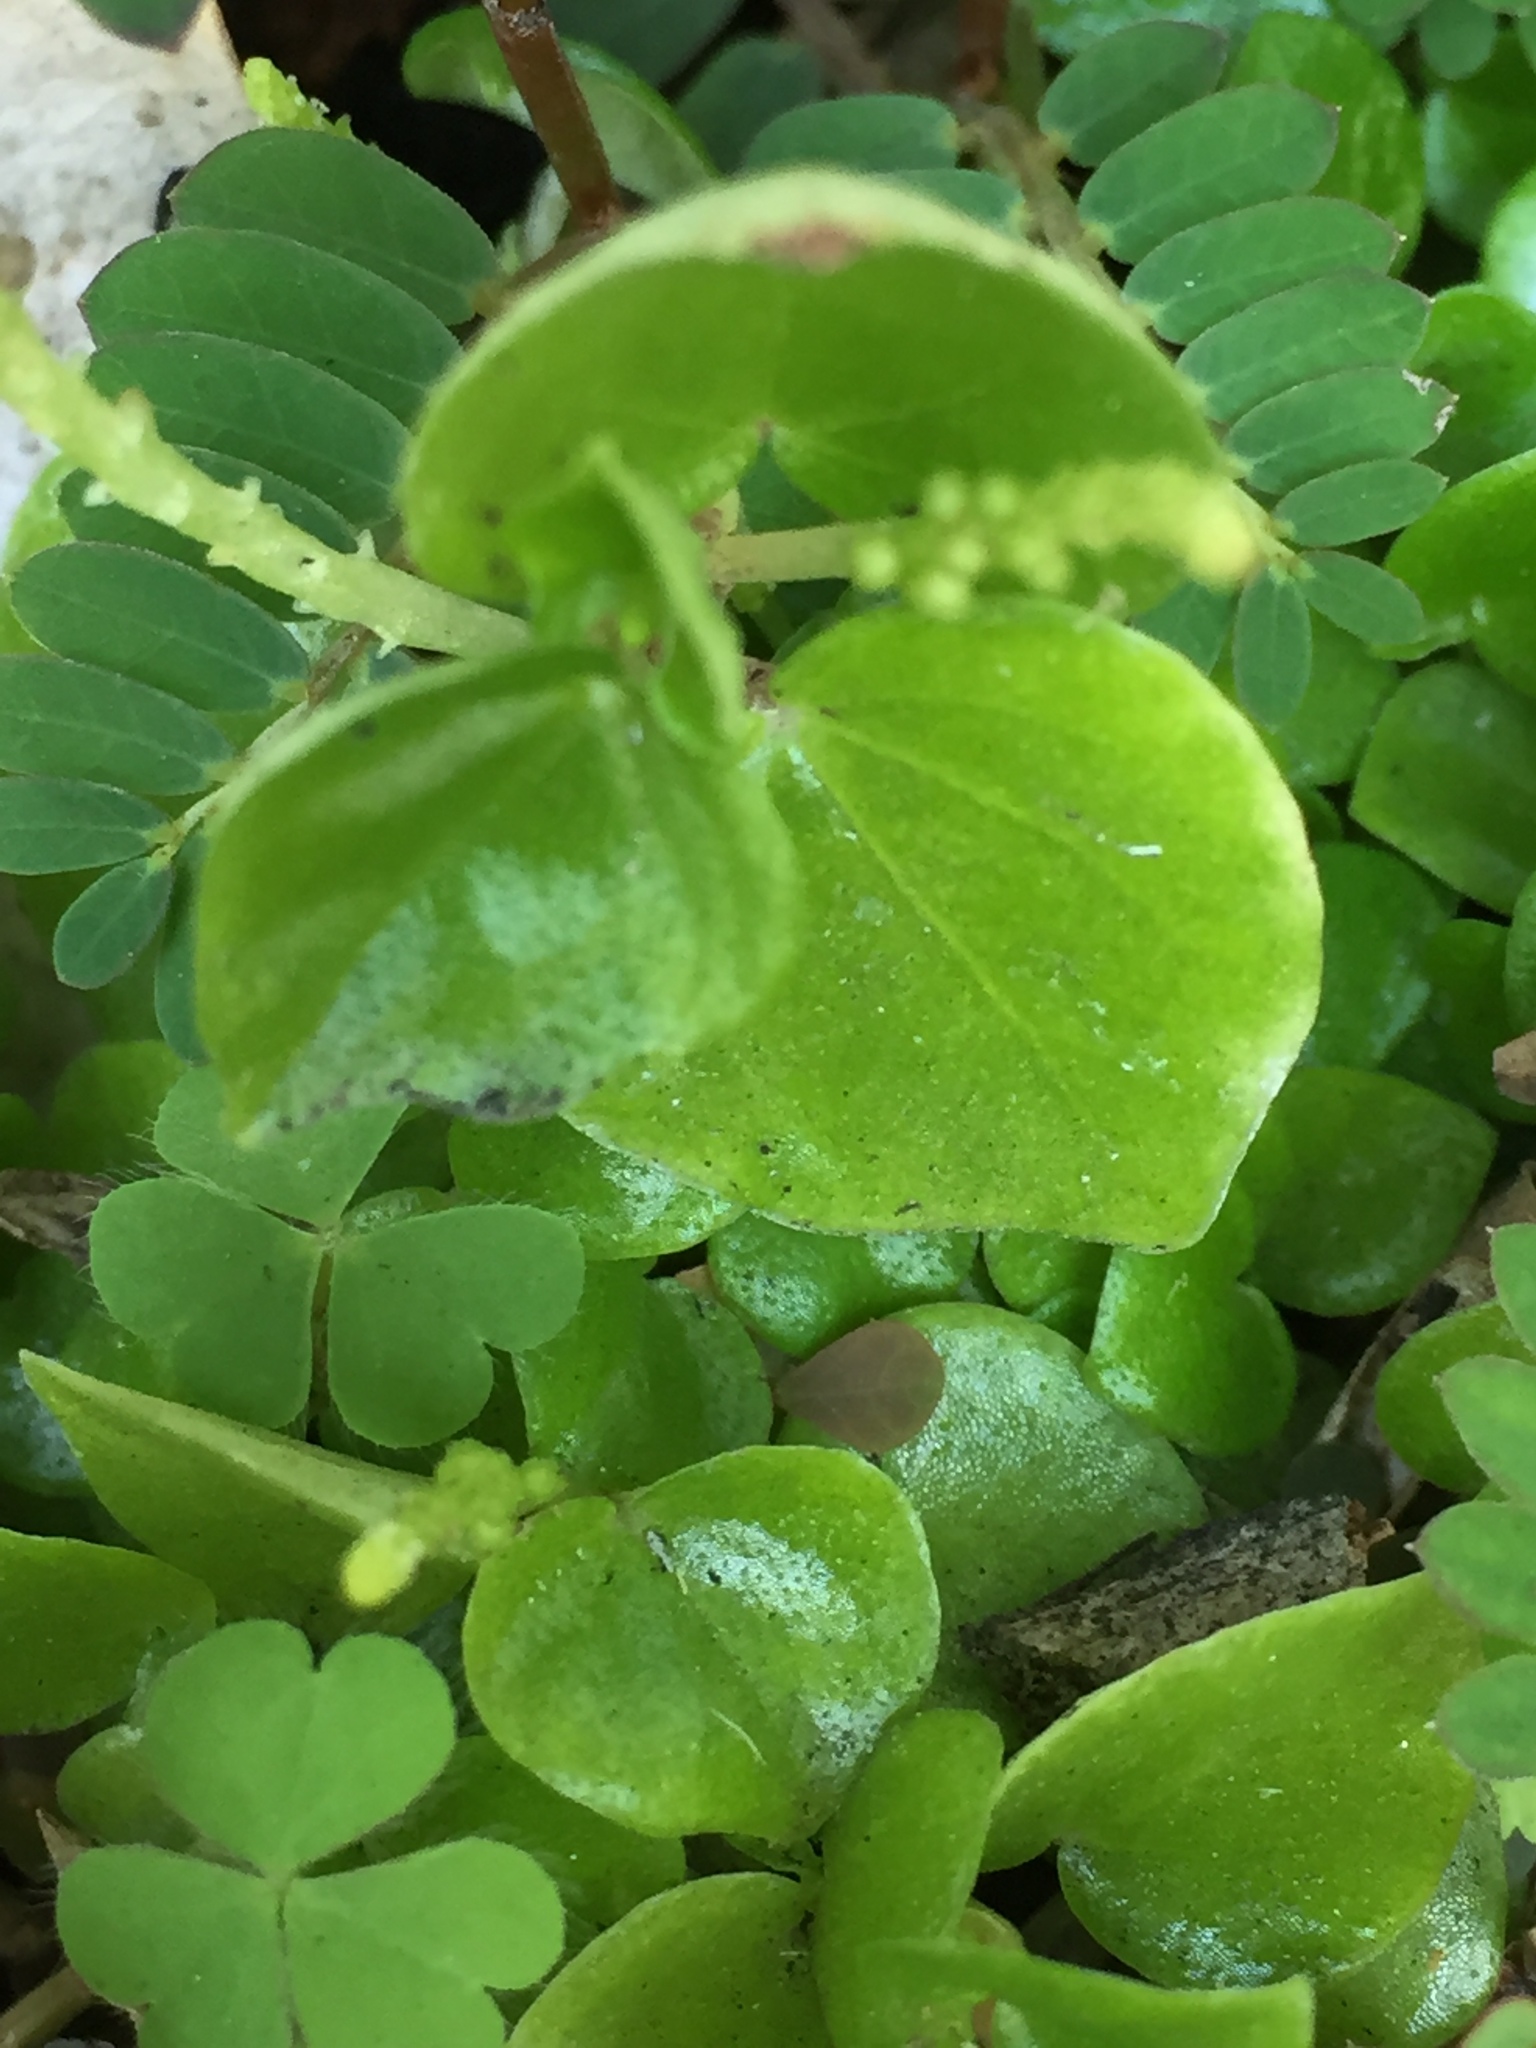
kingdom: Plantae
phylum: Tracheophyta
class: Magnoliopsida
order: Piperales
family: Piperaceae
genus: Peperomia
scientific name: Peperomia pellucida
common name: Man to man
